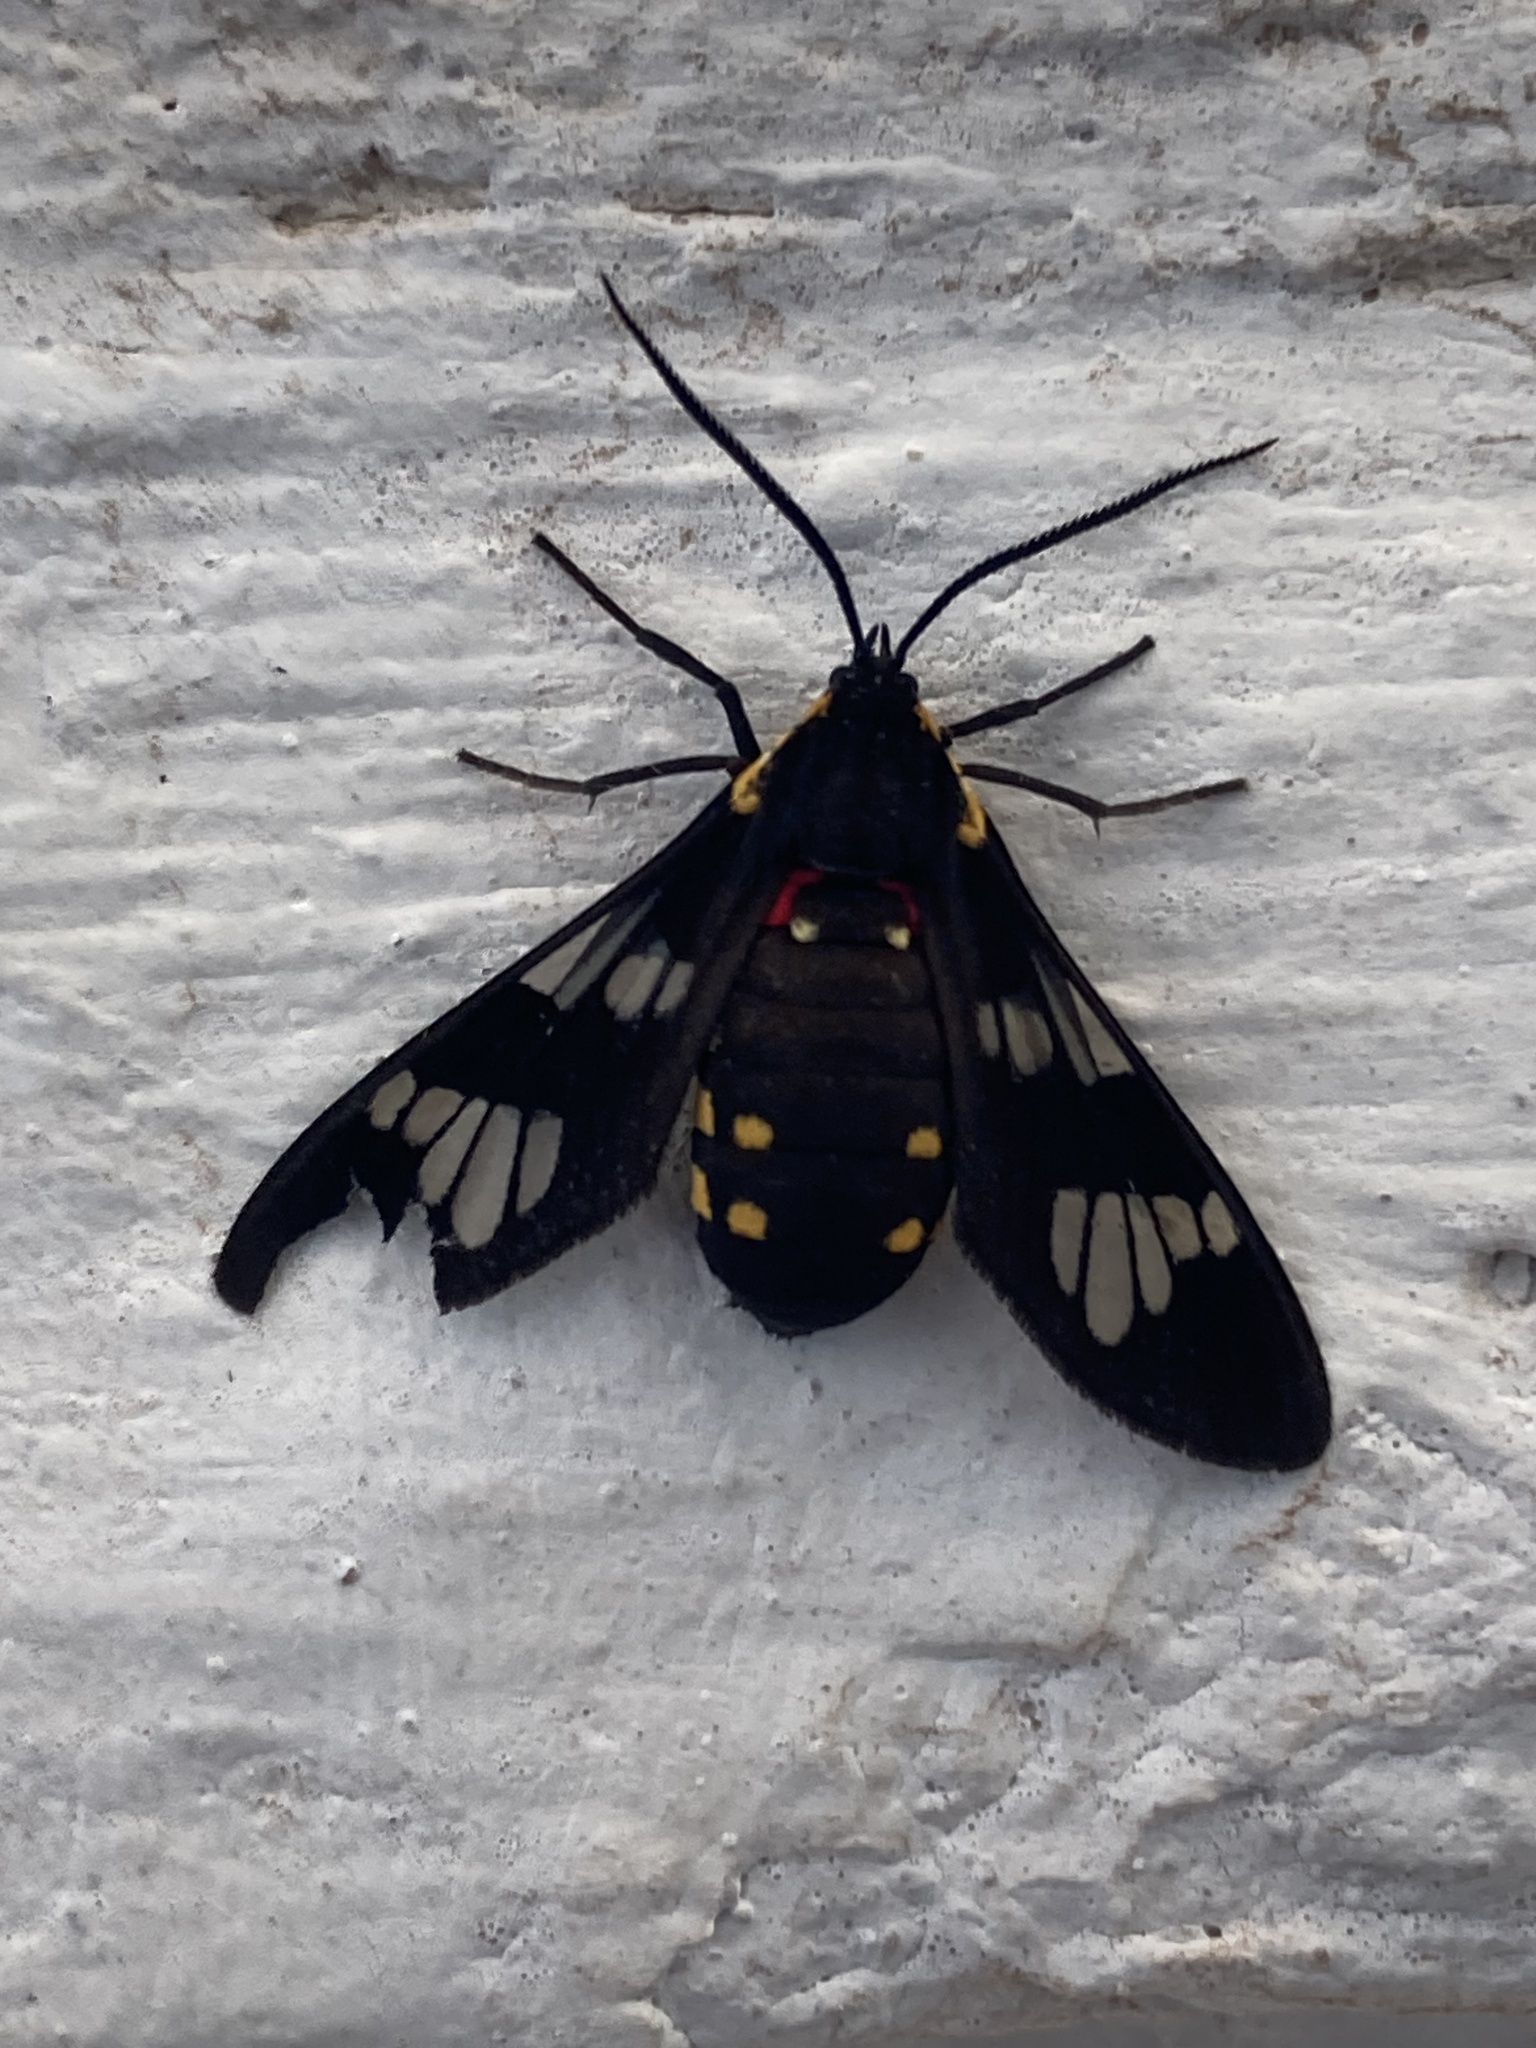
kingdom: Animalia
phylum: Arthropoda
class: Insecta
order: Lepidoptera
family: Erebidae
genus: Eurata
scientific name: Eurata hermione
